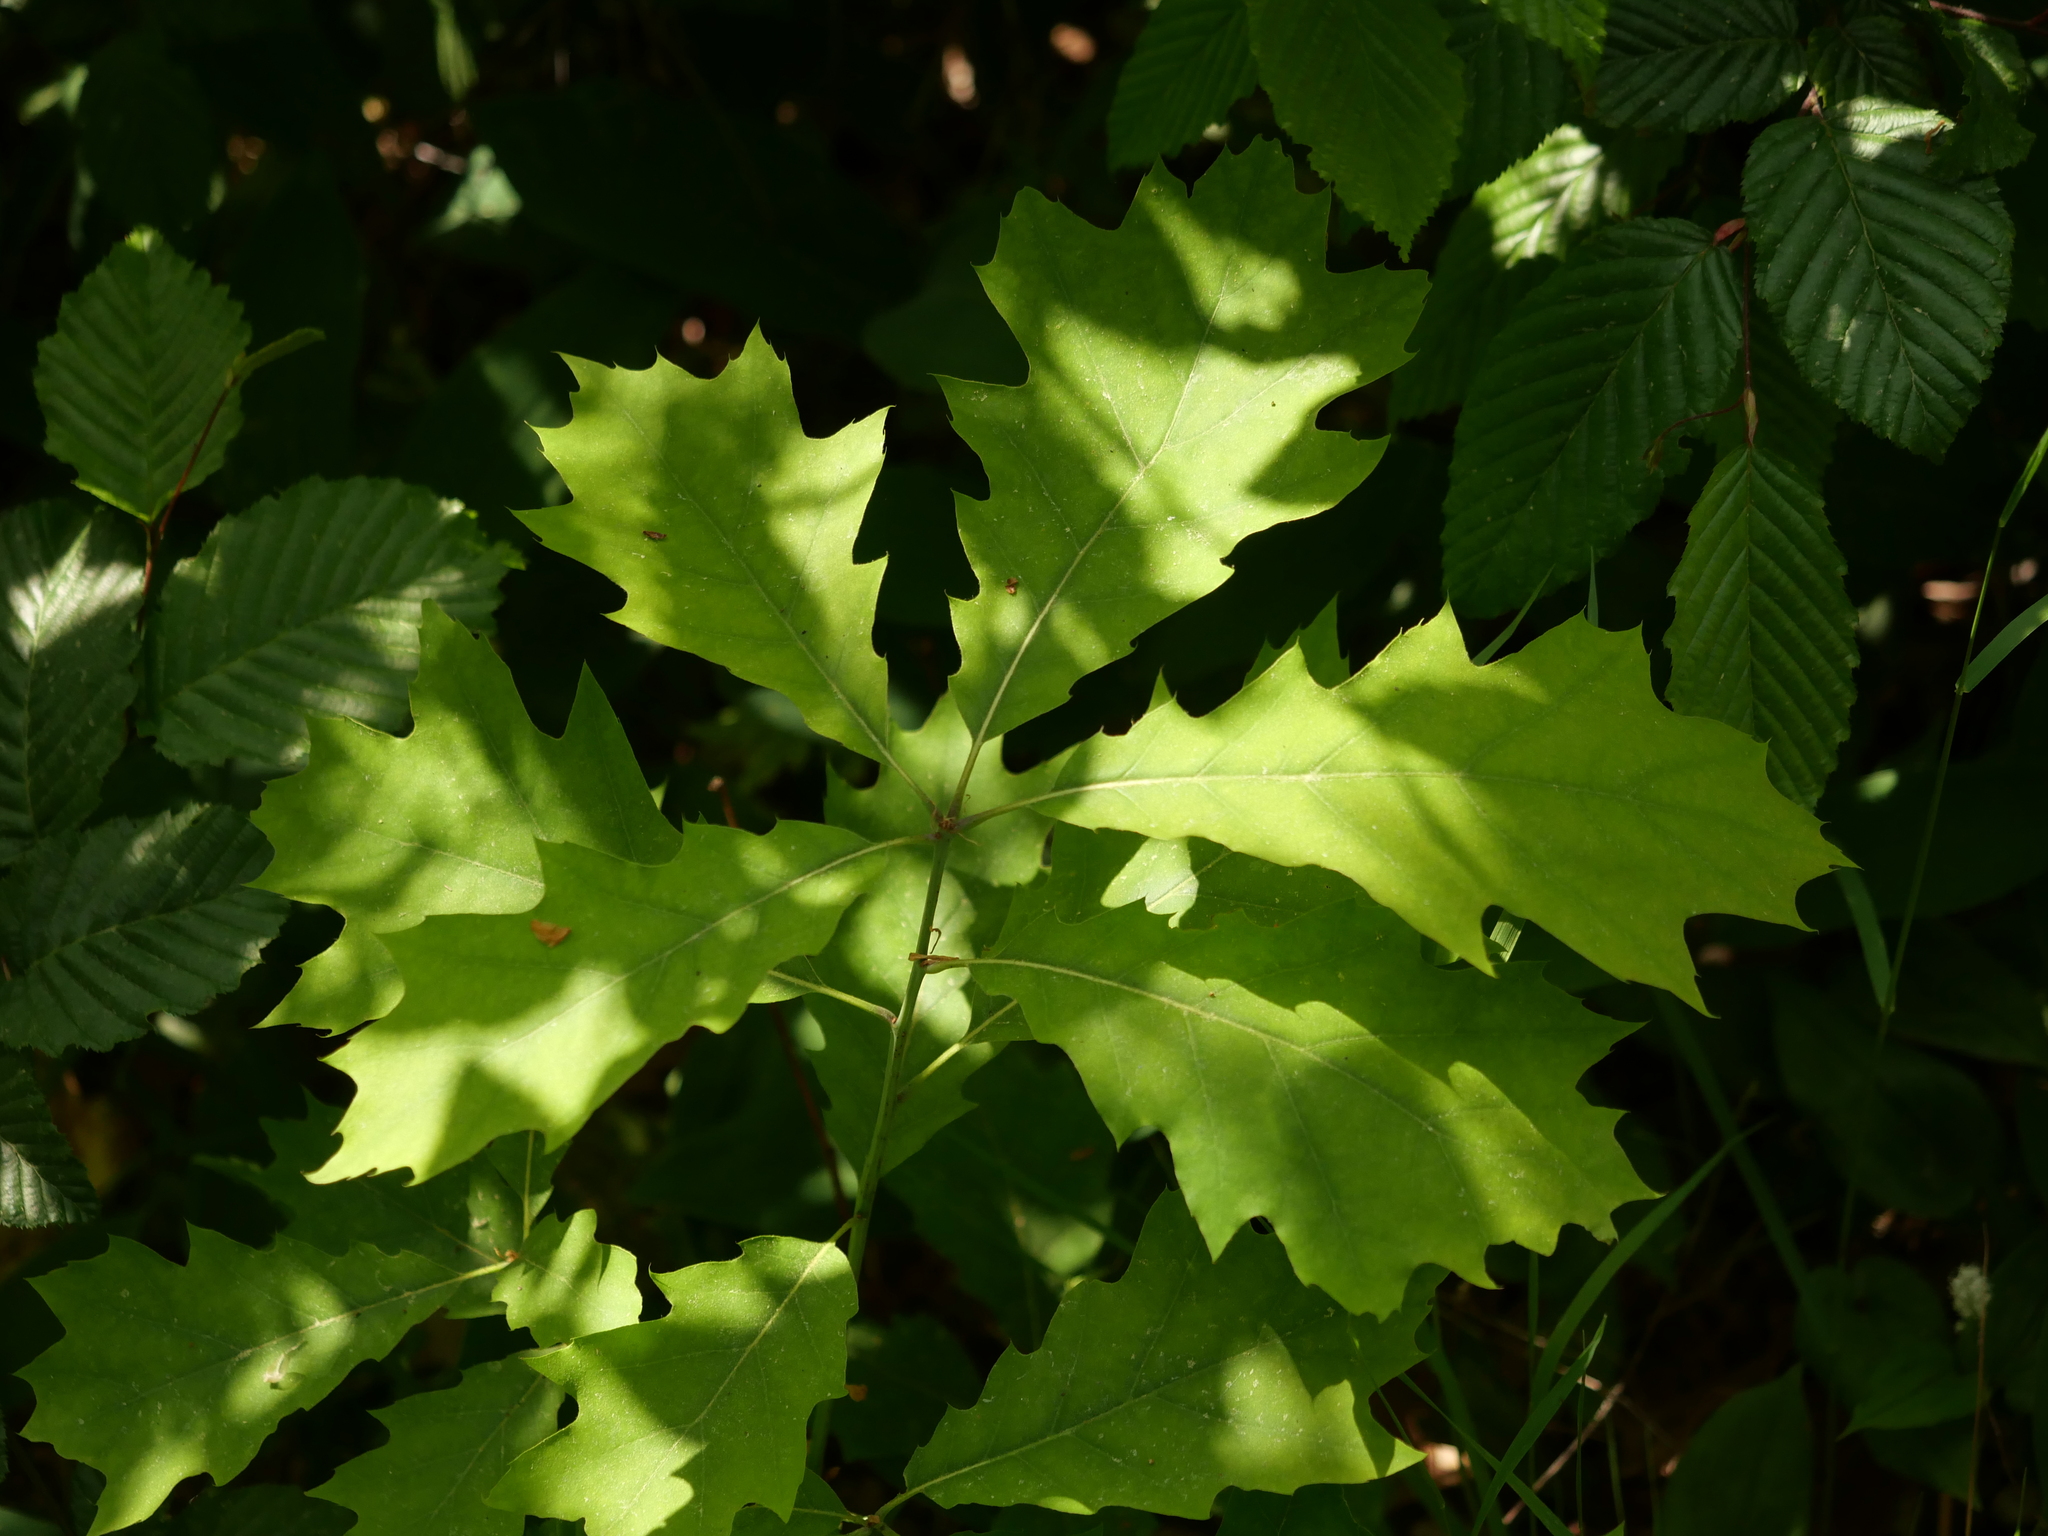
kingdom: Plantae
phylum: Tracheophyta
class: Magnoliopsida
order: Fagales
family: Fagaceae
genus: Quercus
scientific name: Quercus rubra
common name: Red oak
